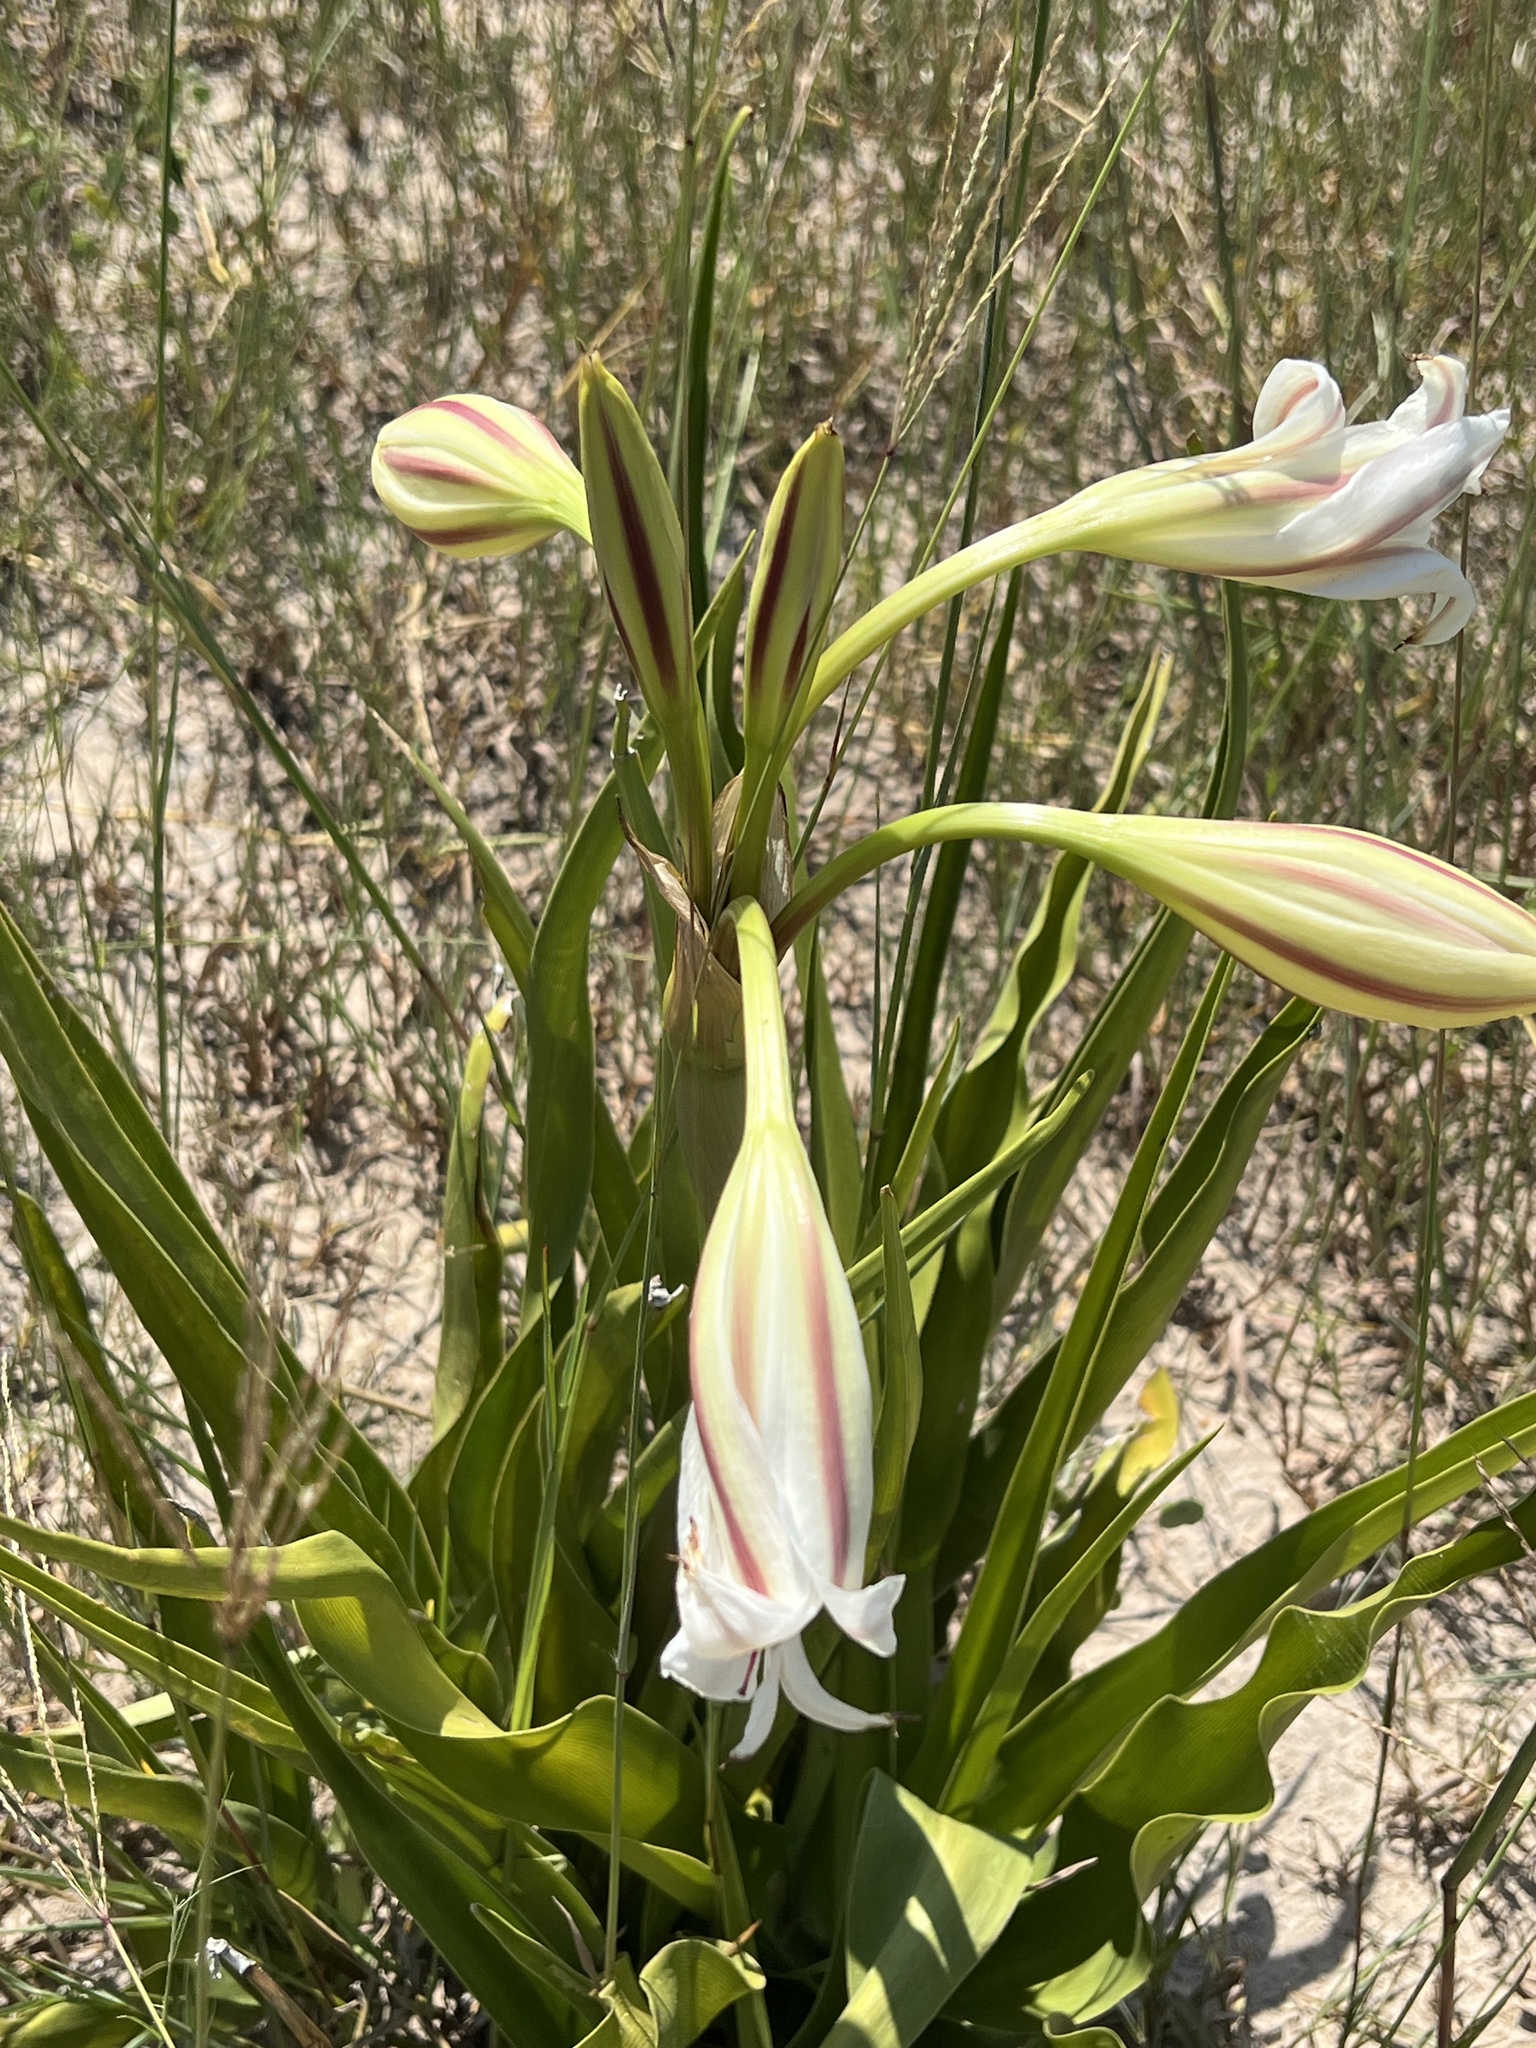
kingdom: Plantae
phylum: Tracheophyta
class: Liliopsida
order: Asparagales
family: Amaryllidaceae
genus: Crinum
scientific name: Crinum verdoorniae
